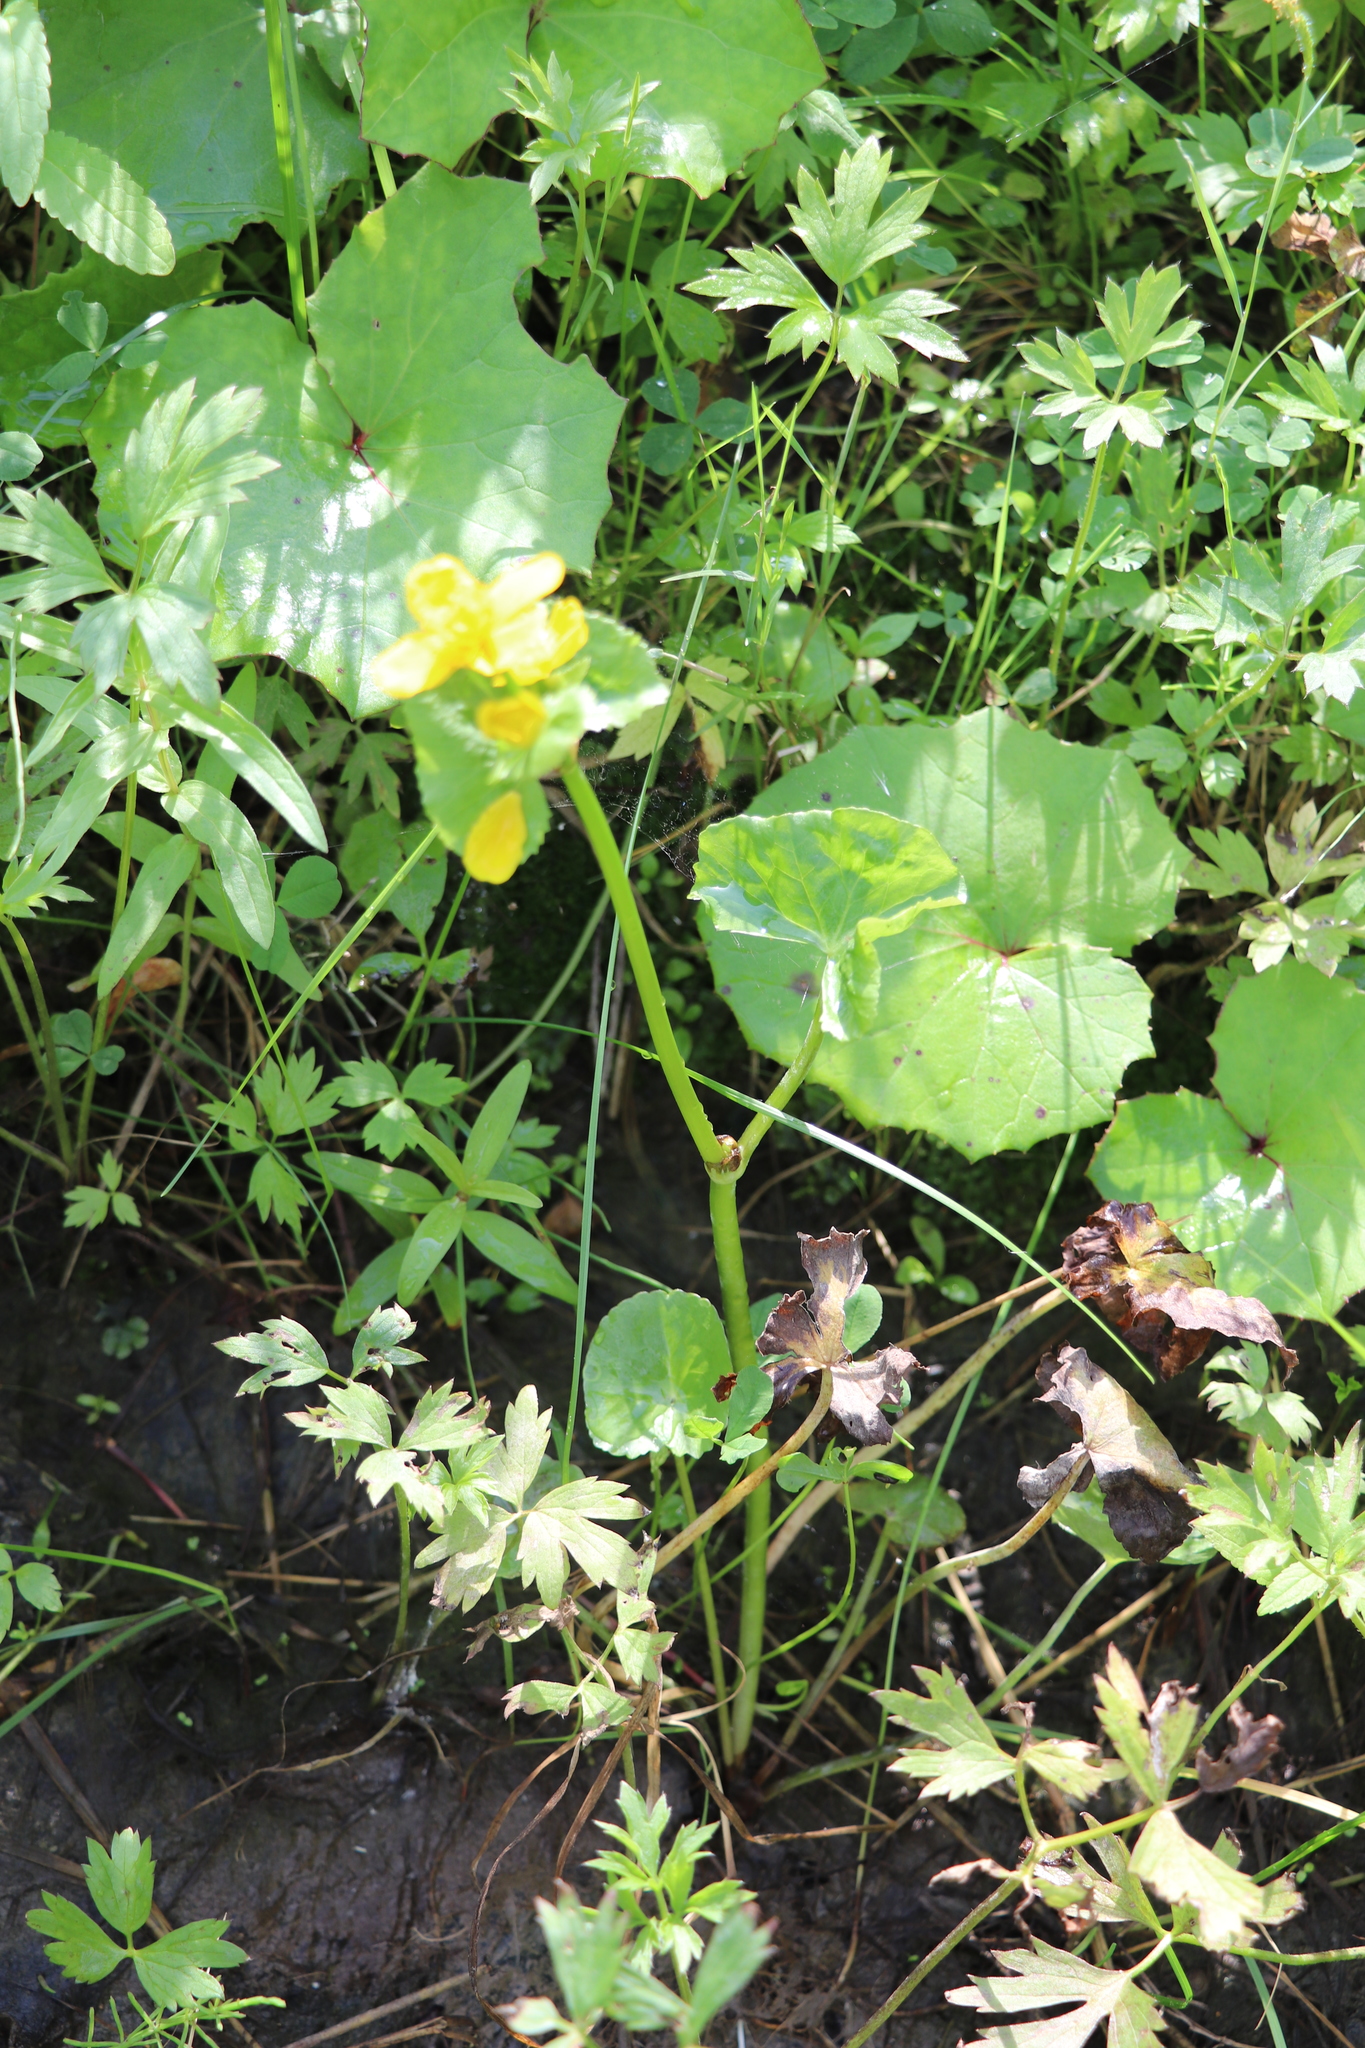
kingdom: Plantae
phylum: Tracheophyta
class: Magnoliopsida
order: Ranunculales
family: Ranunculaceae
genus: Caltha
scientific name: Caltha palustris
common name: Marsh marigold
